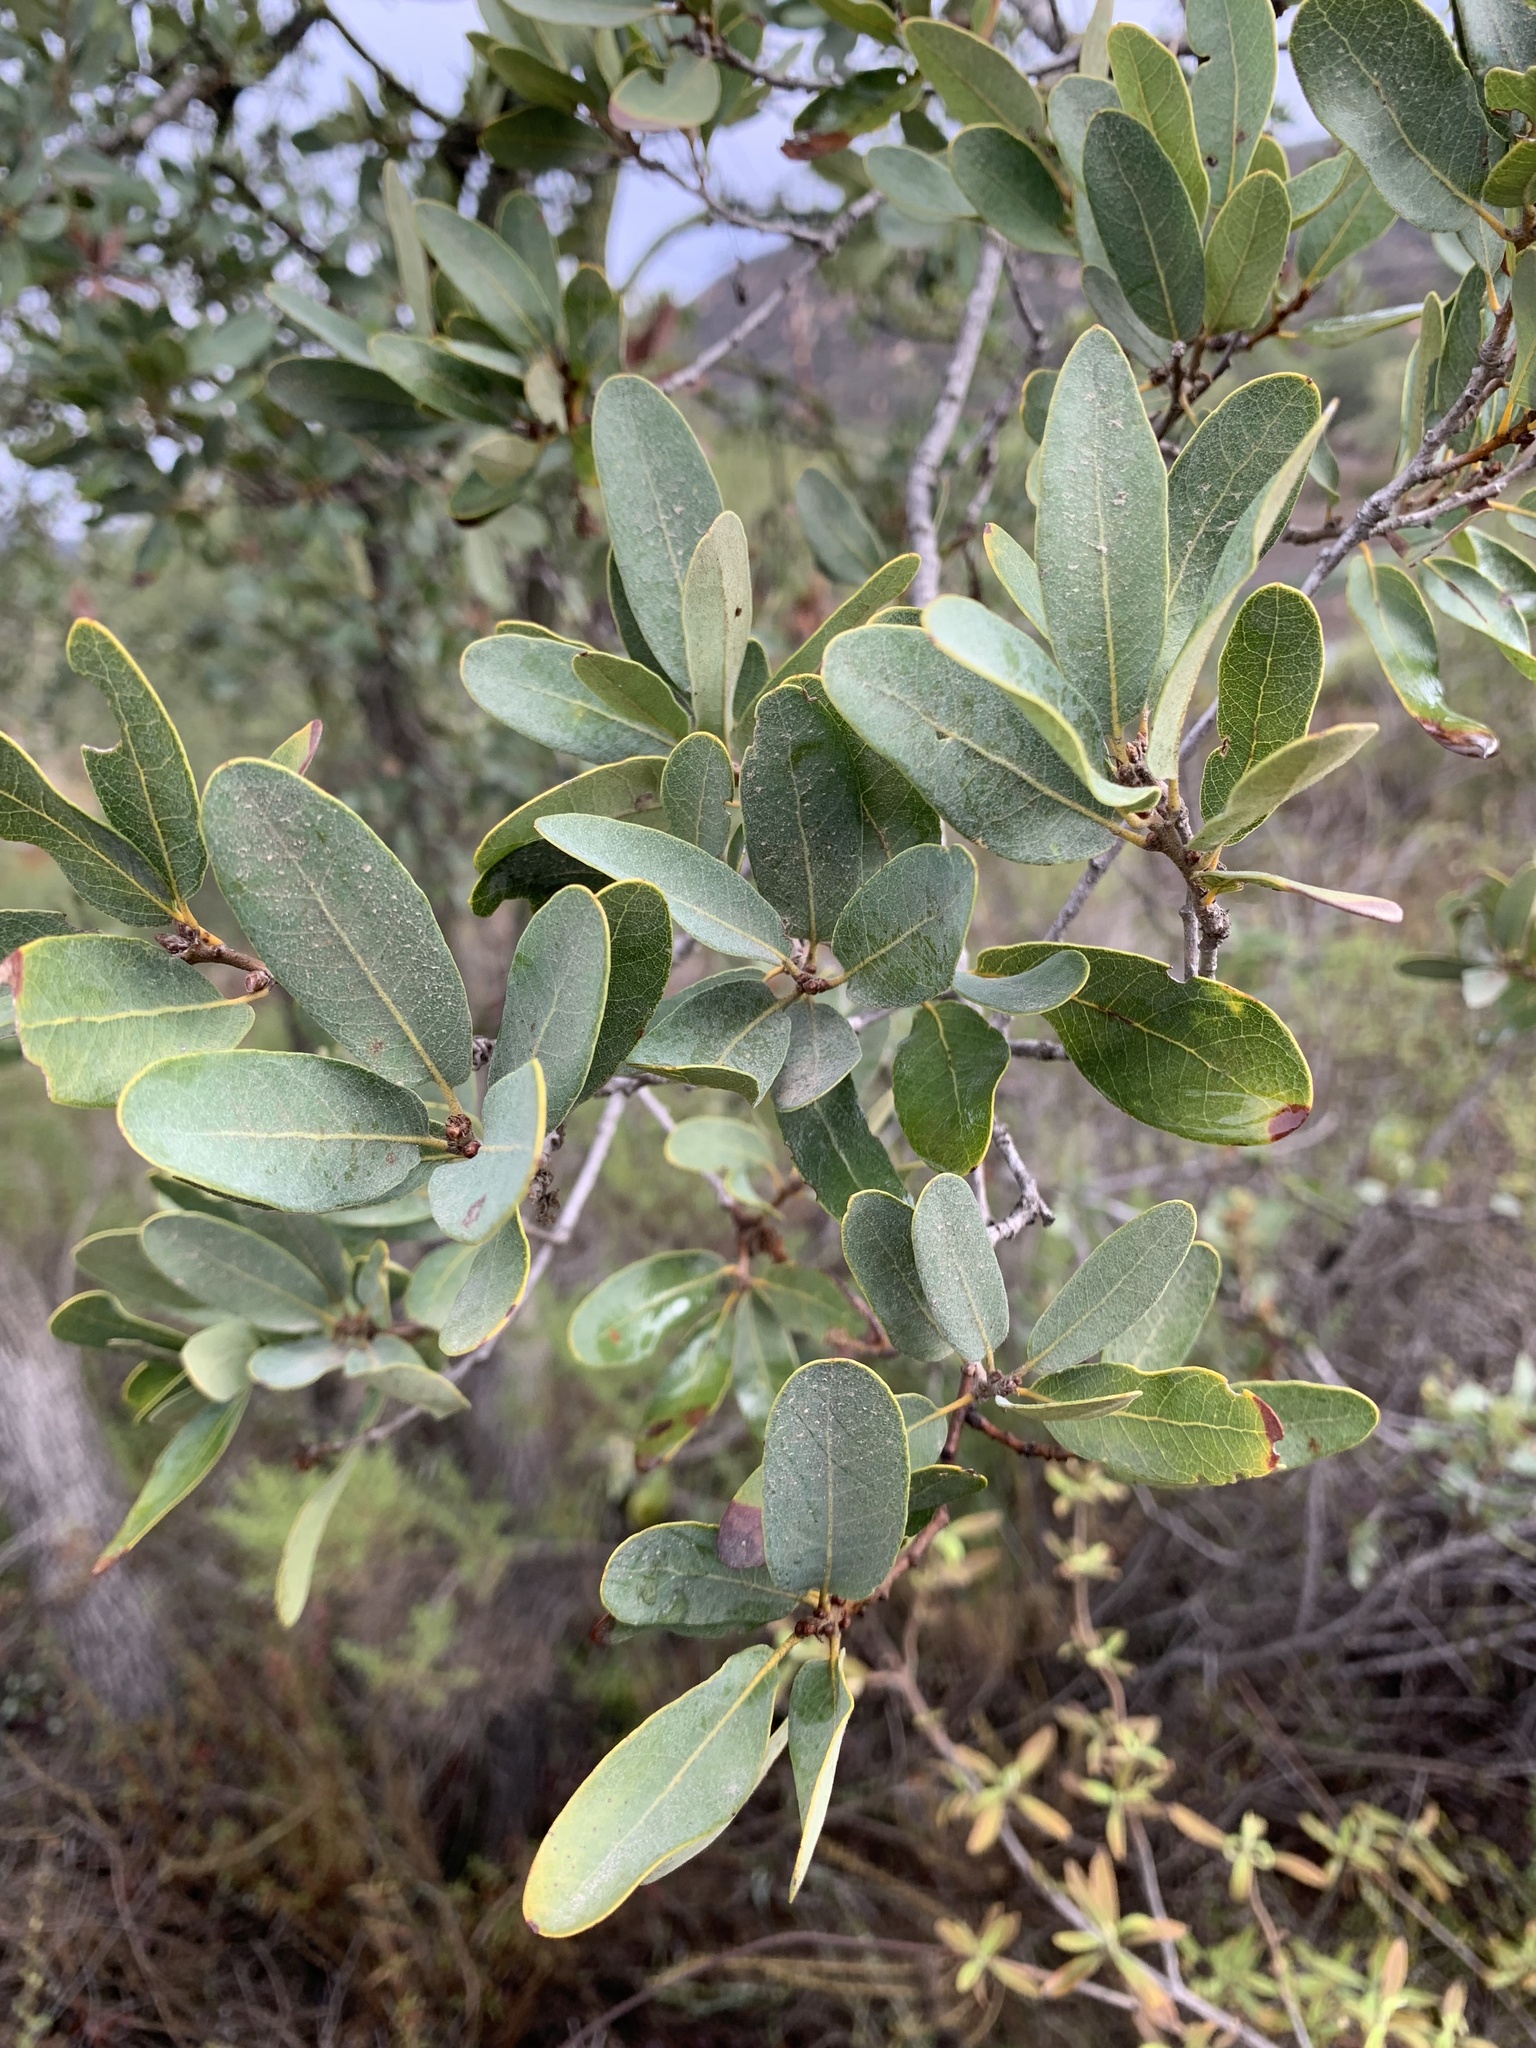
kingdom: Plantae
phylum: Tracheophyta
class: Magnoliopsida
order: Fagales
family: Fagaceae
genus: Quercus
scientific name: Quercus engelmannii
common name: Engelmann oak
